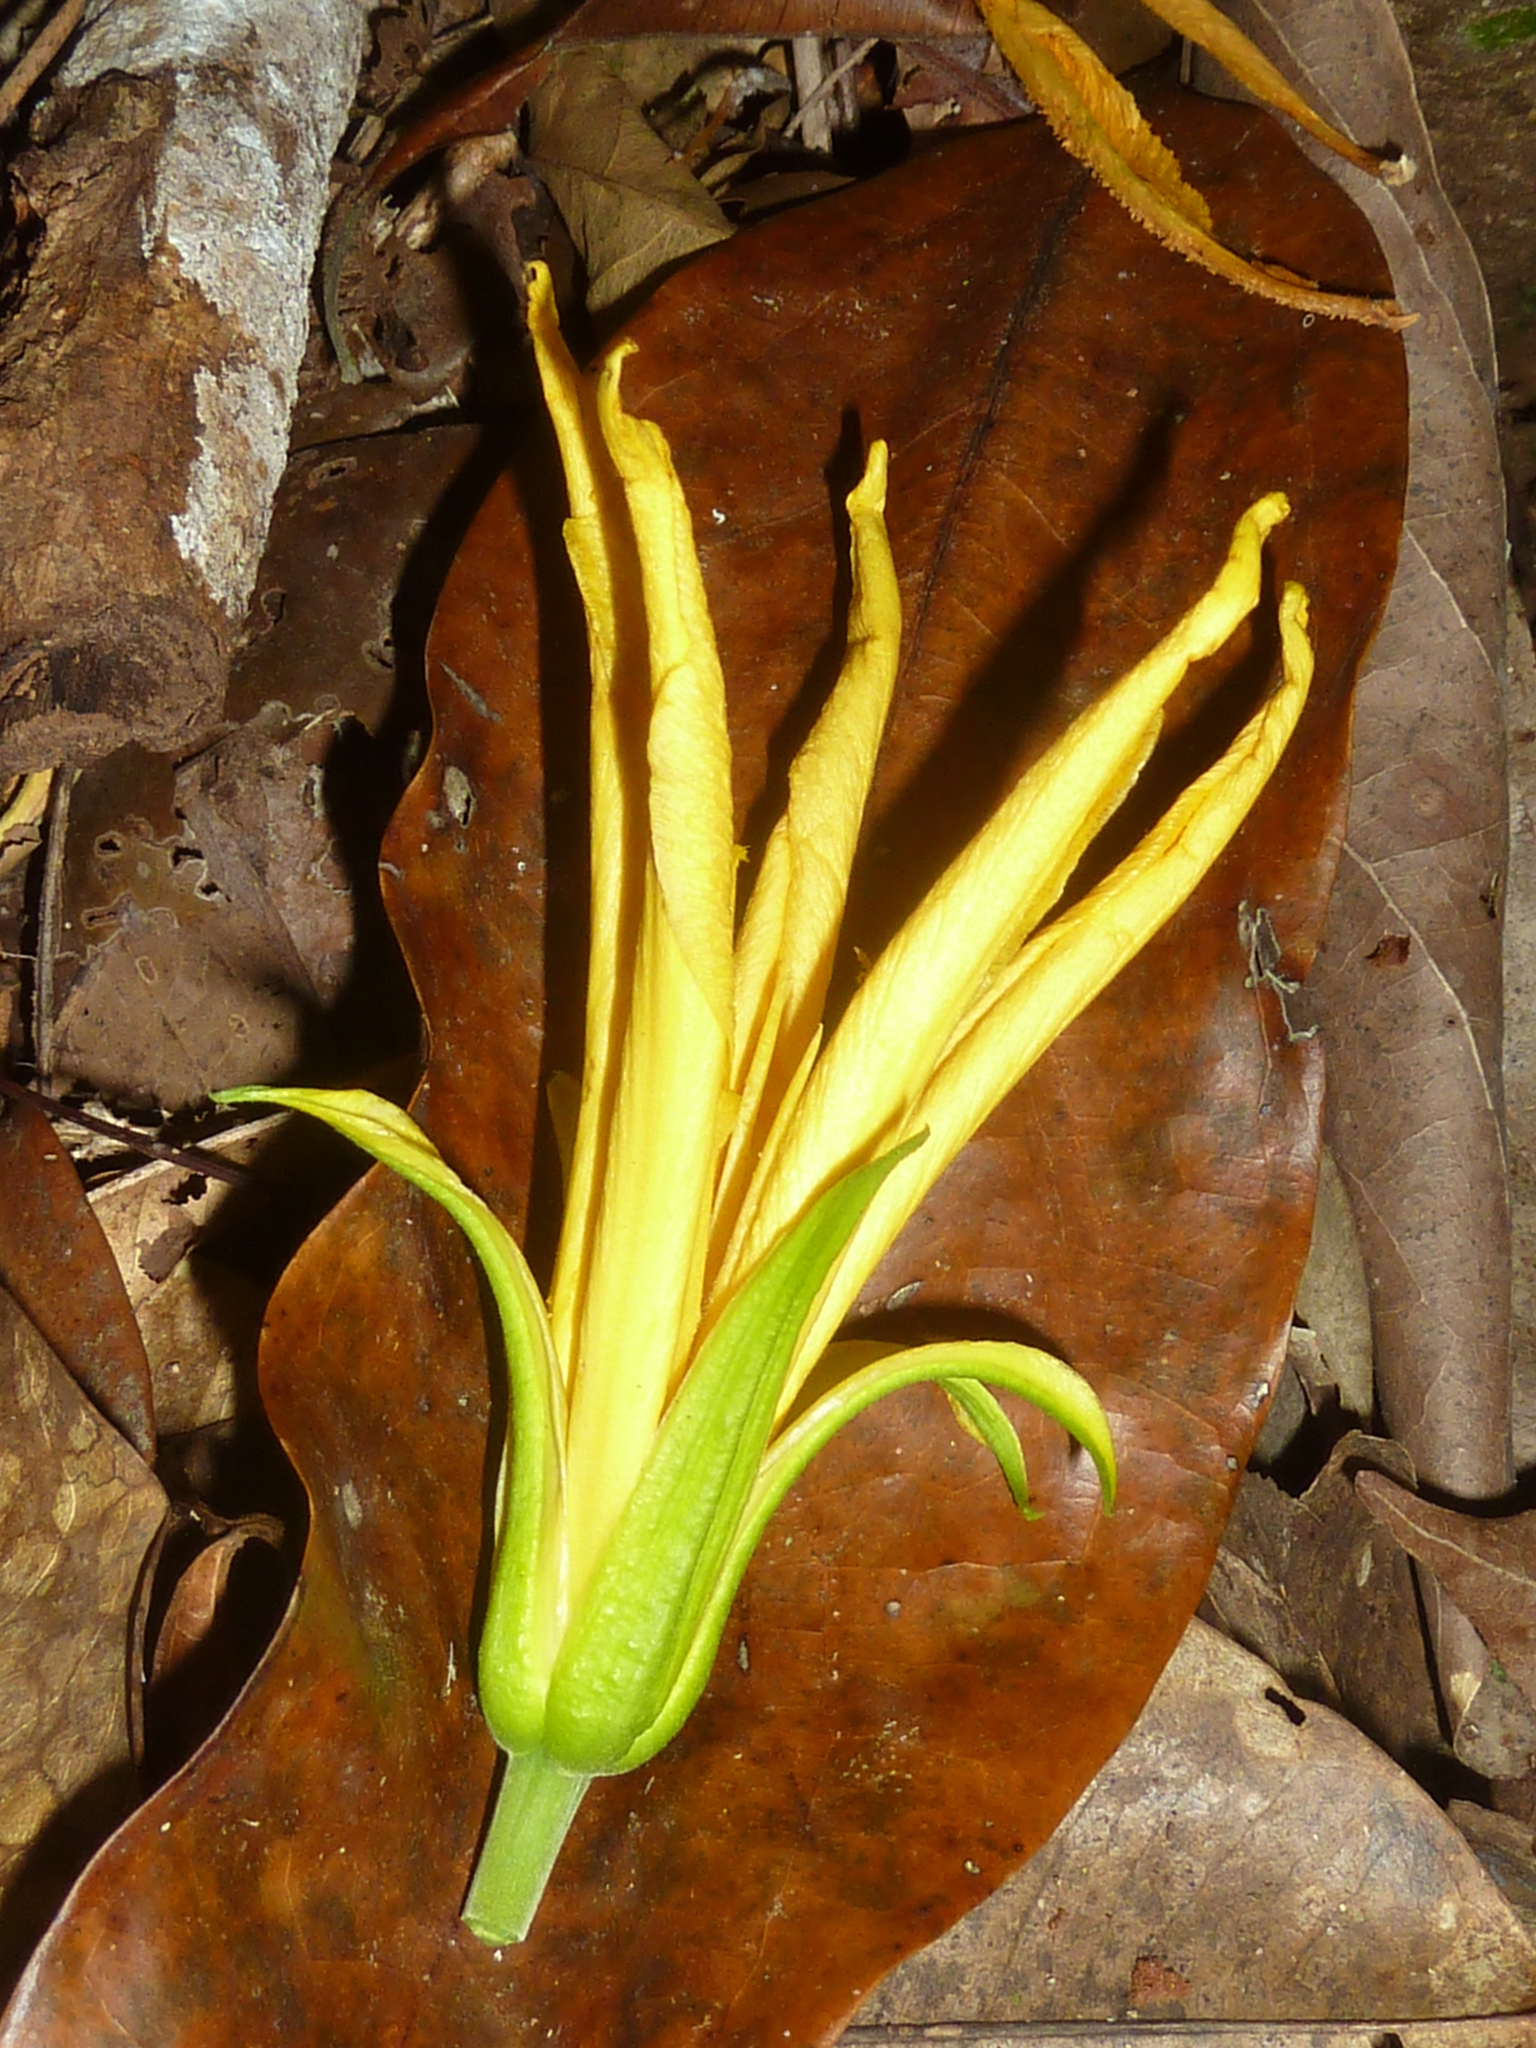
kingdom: Plantae
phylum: Tracheophyta
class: Magnoliopsida
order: Malpighiales
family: Turneraceae
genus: Erblichia
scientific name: Erblichia odorata
